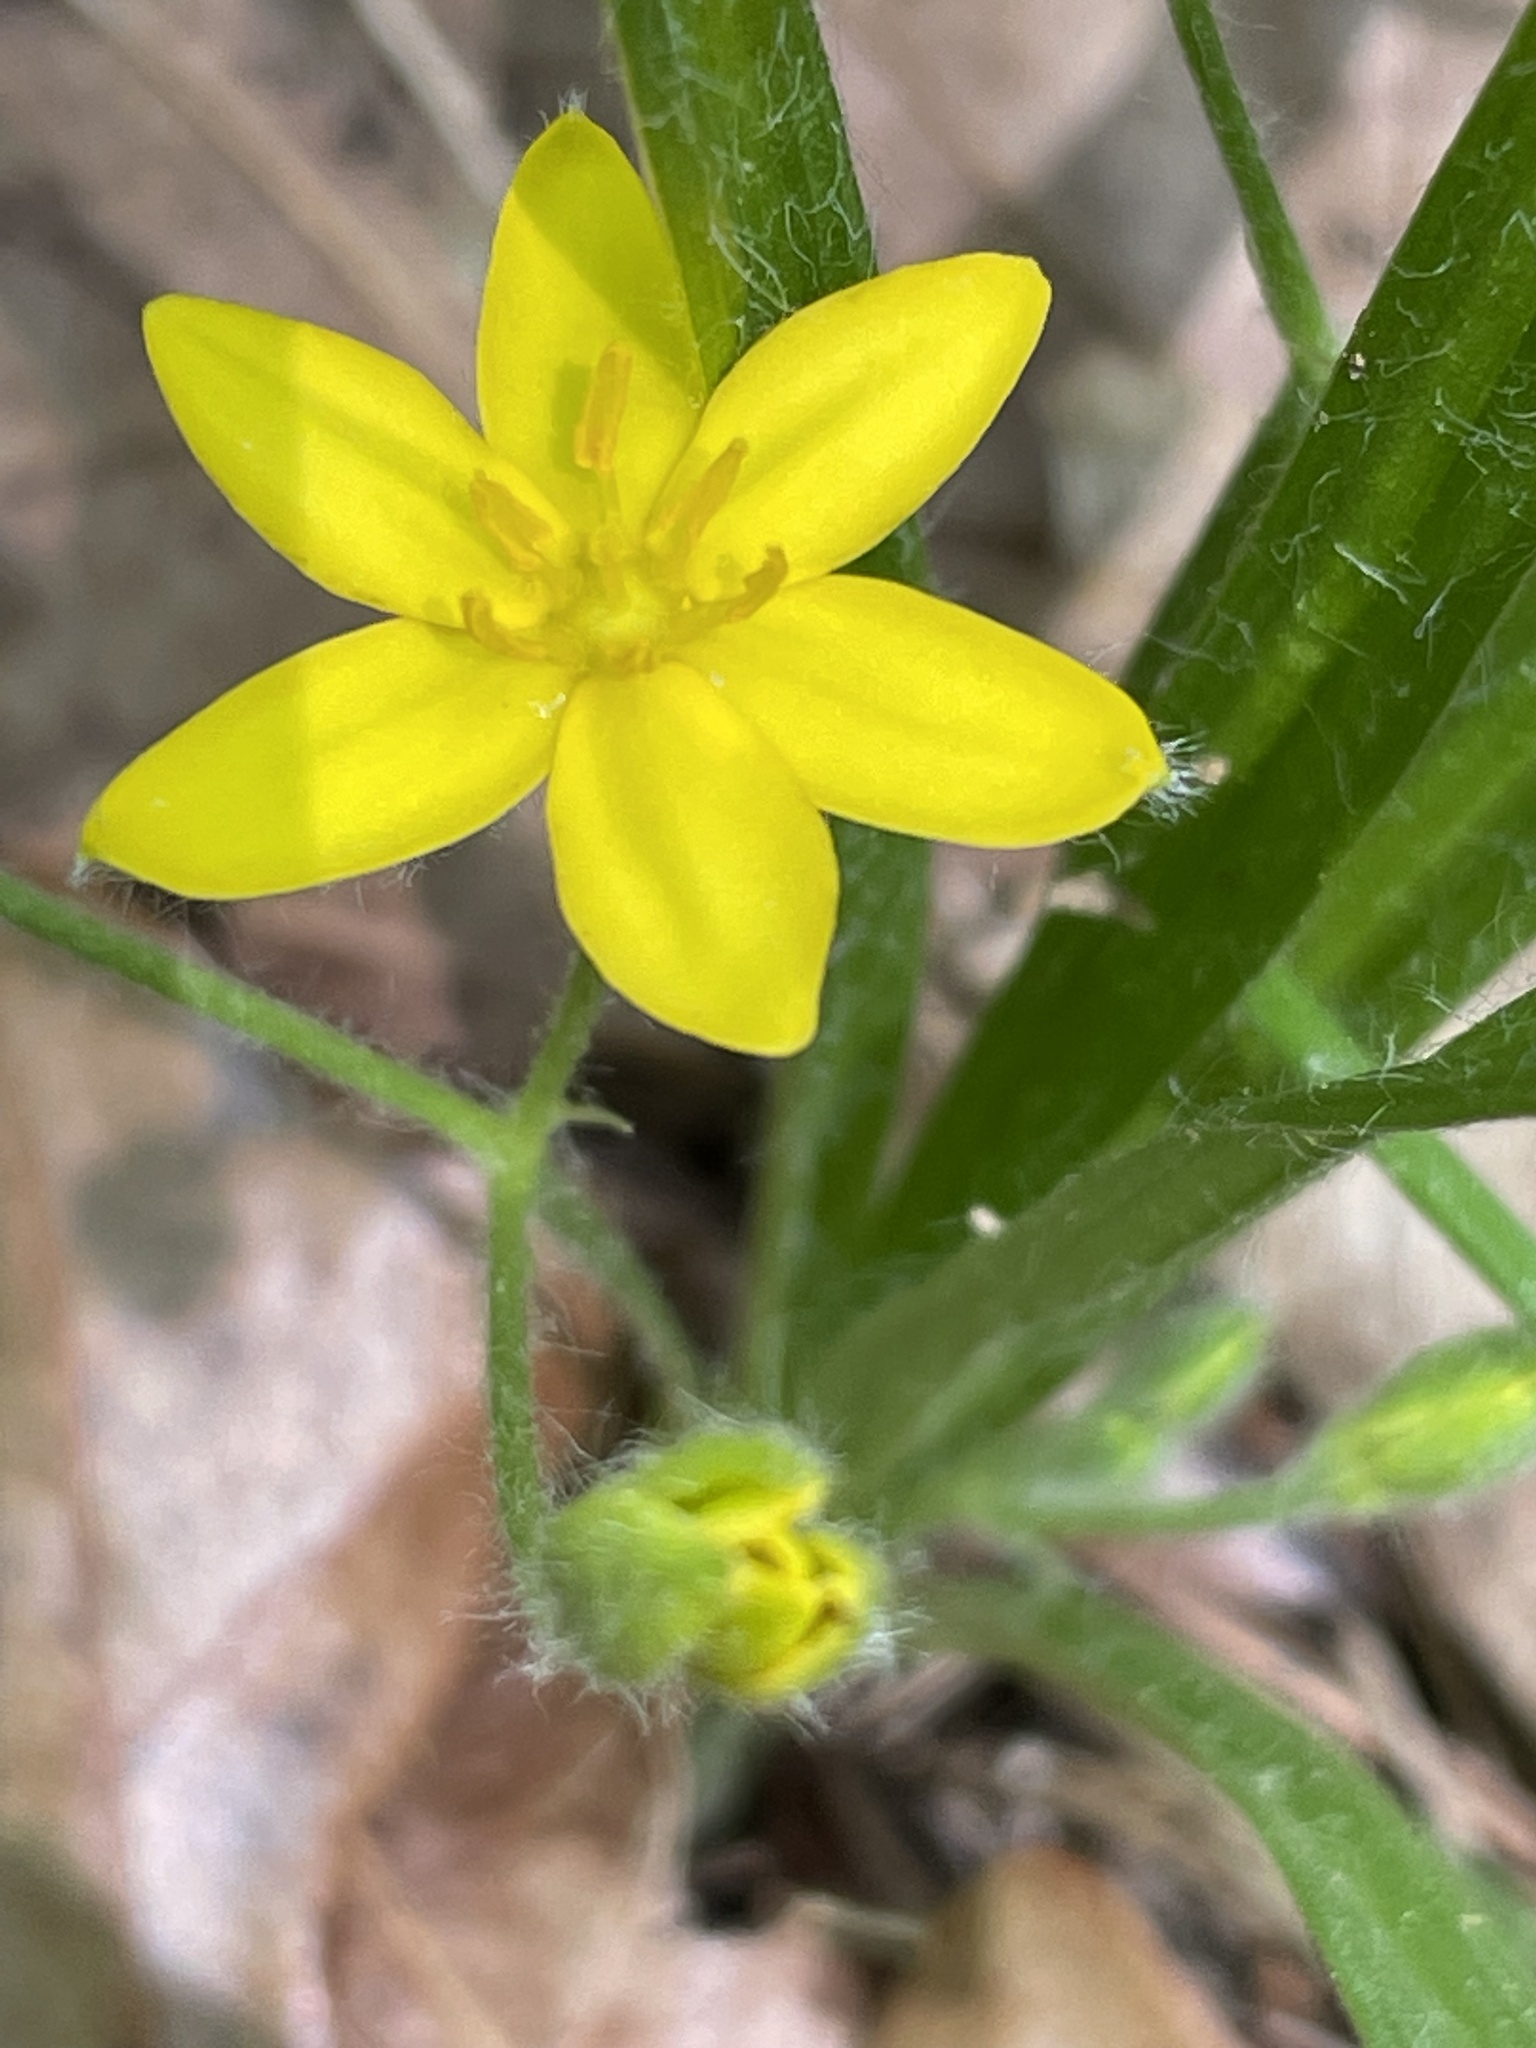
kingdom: Plantae
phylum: Tracheophyta
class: Liliopsida
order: Asparagales
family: Hypoxidaceae
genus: Hypoxis
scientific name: Hypoxis hirsuta
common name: Common goldstar
